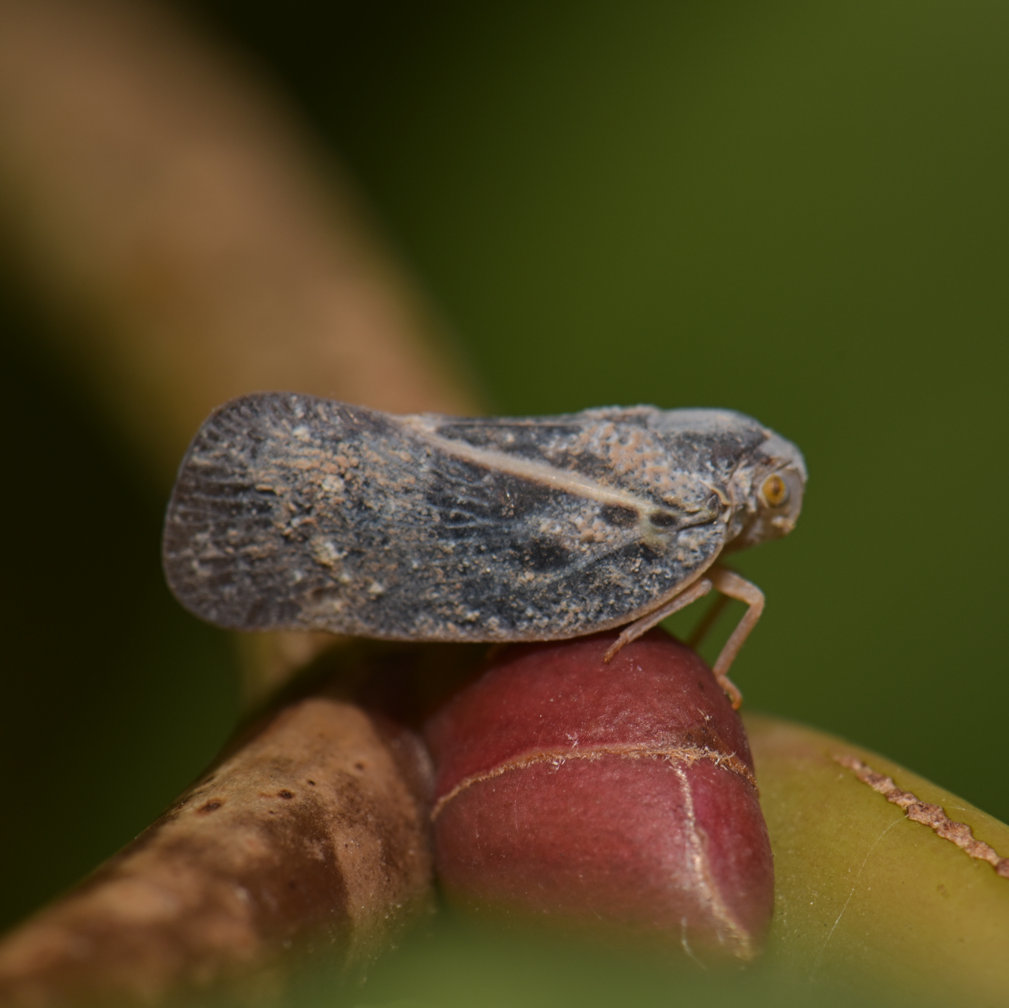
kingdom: Animalia
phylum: Arthropoda
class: Insecta
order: Hemiptera
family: Flatidae
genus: Metcalfa
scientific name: Metcalfa pruinosa
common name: Citrus flatid planthopper
